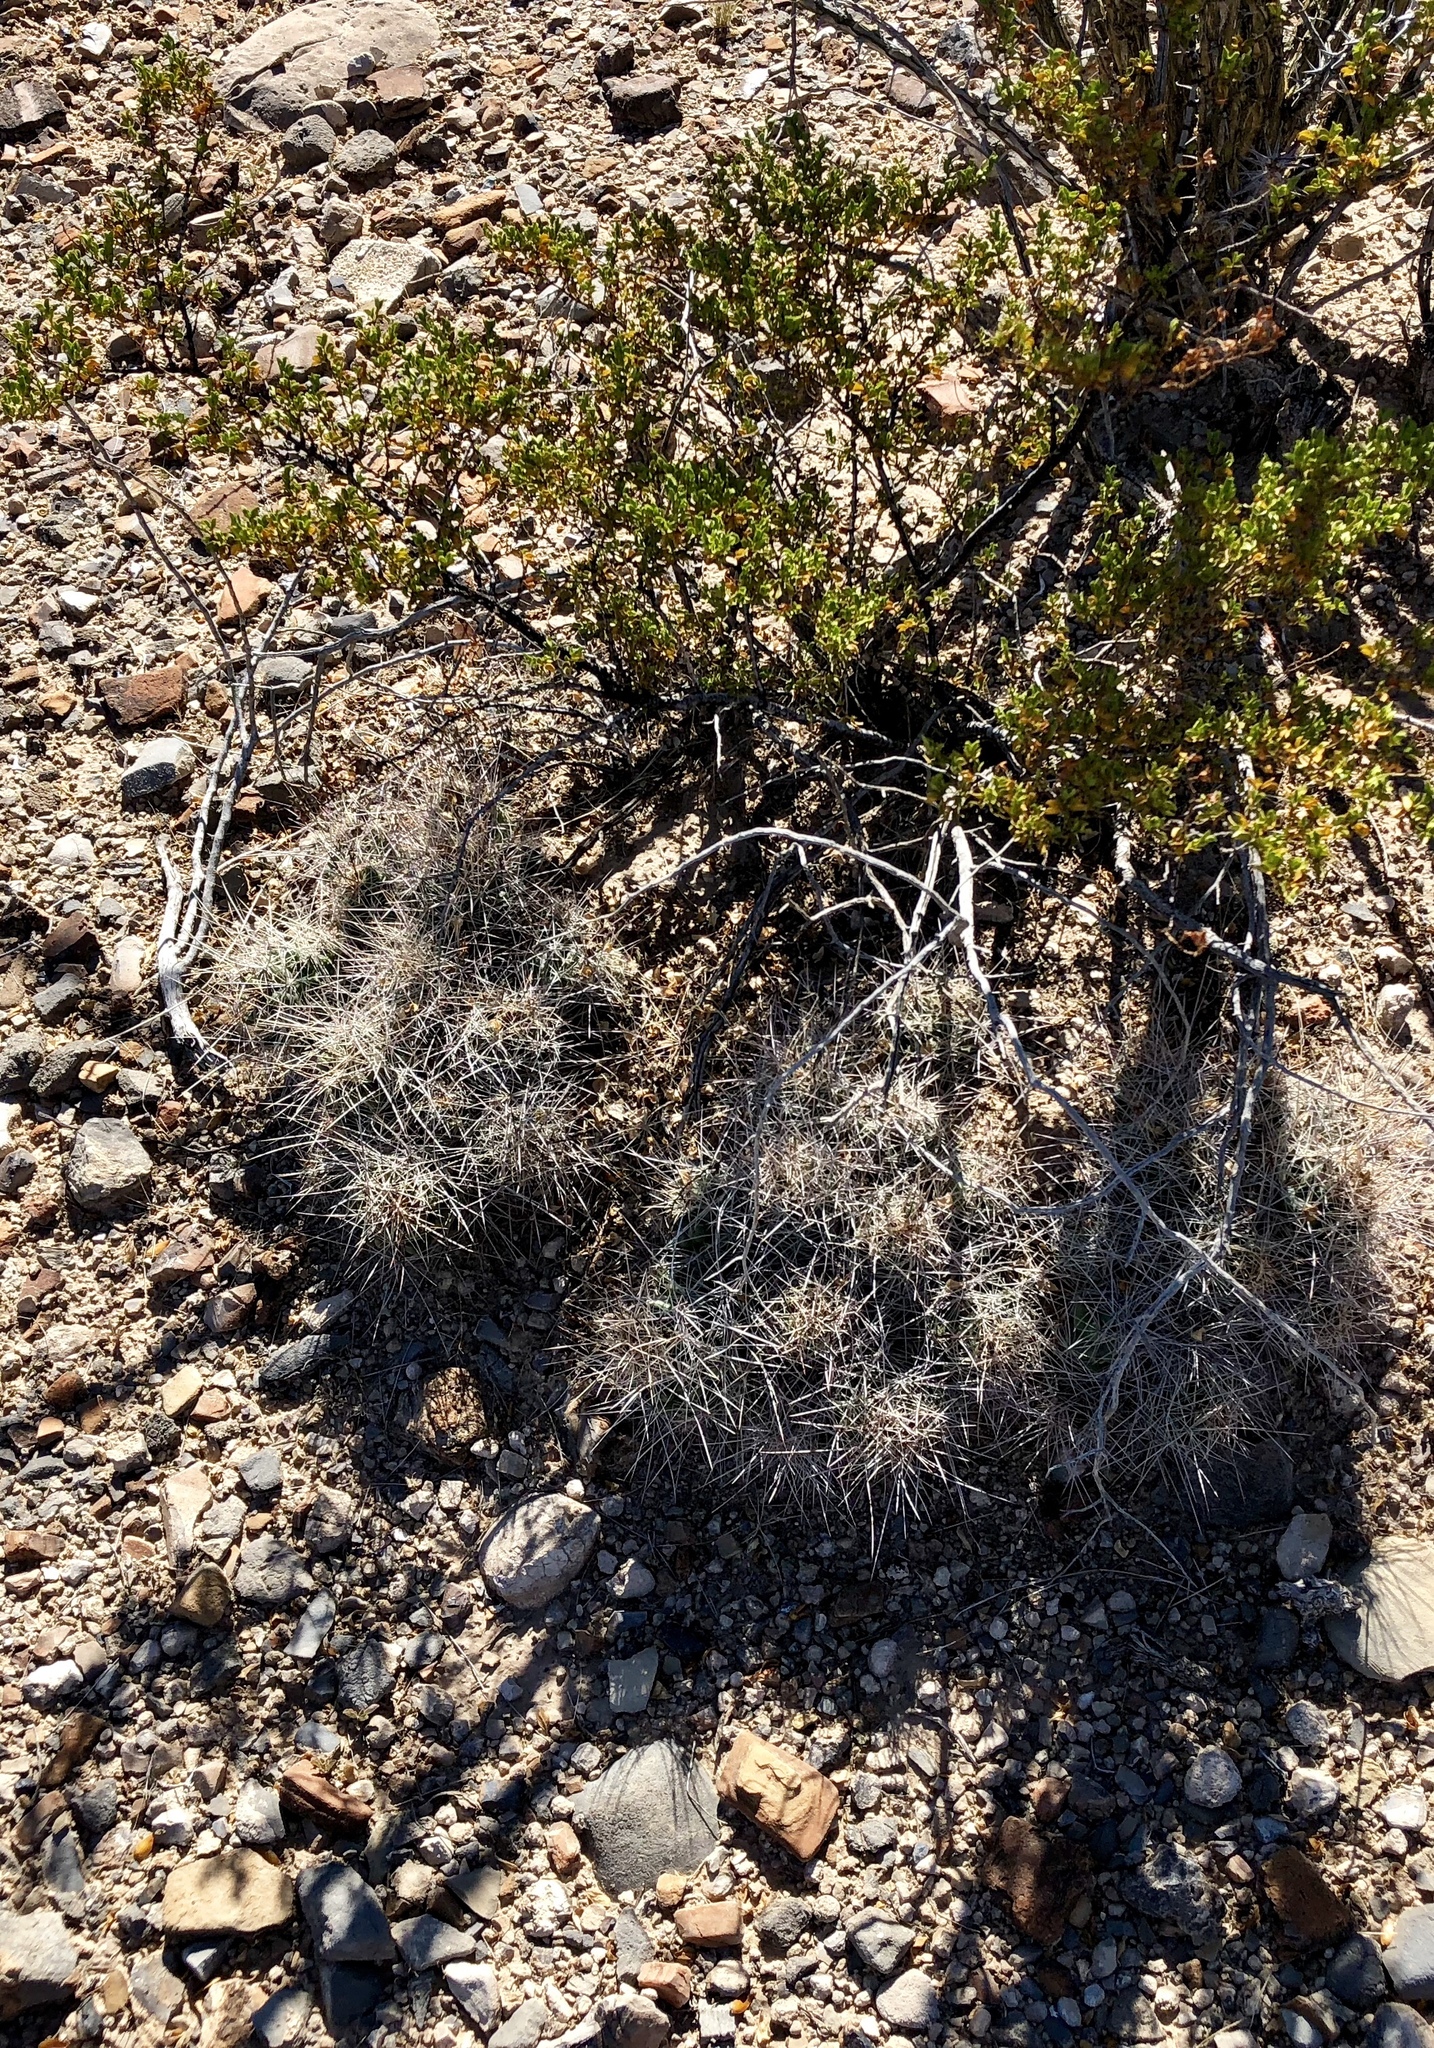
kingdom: Plantae
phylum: Tracheophyta
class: Magnoliopsida
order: Caryophyllales
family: Cactaceae
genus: Coryphantha
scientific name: Coryphantha macromeris
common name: Nipple beehive cactus
